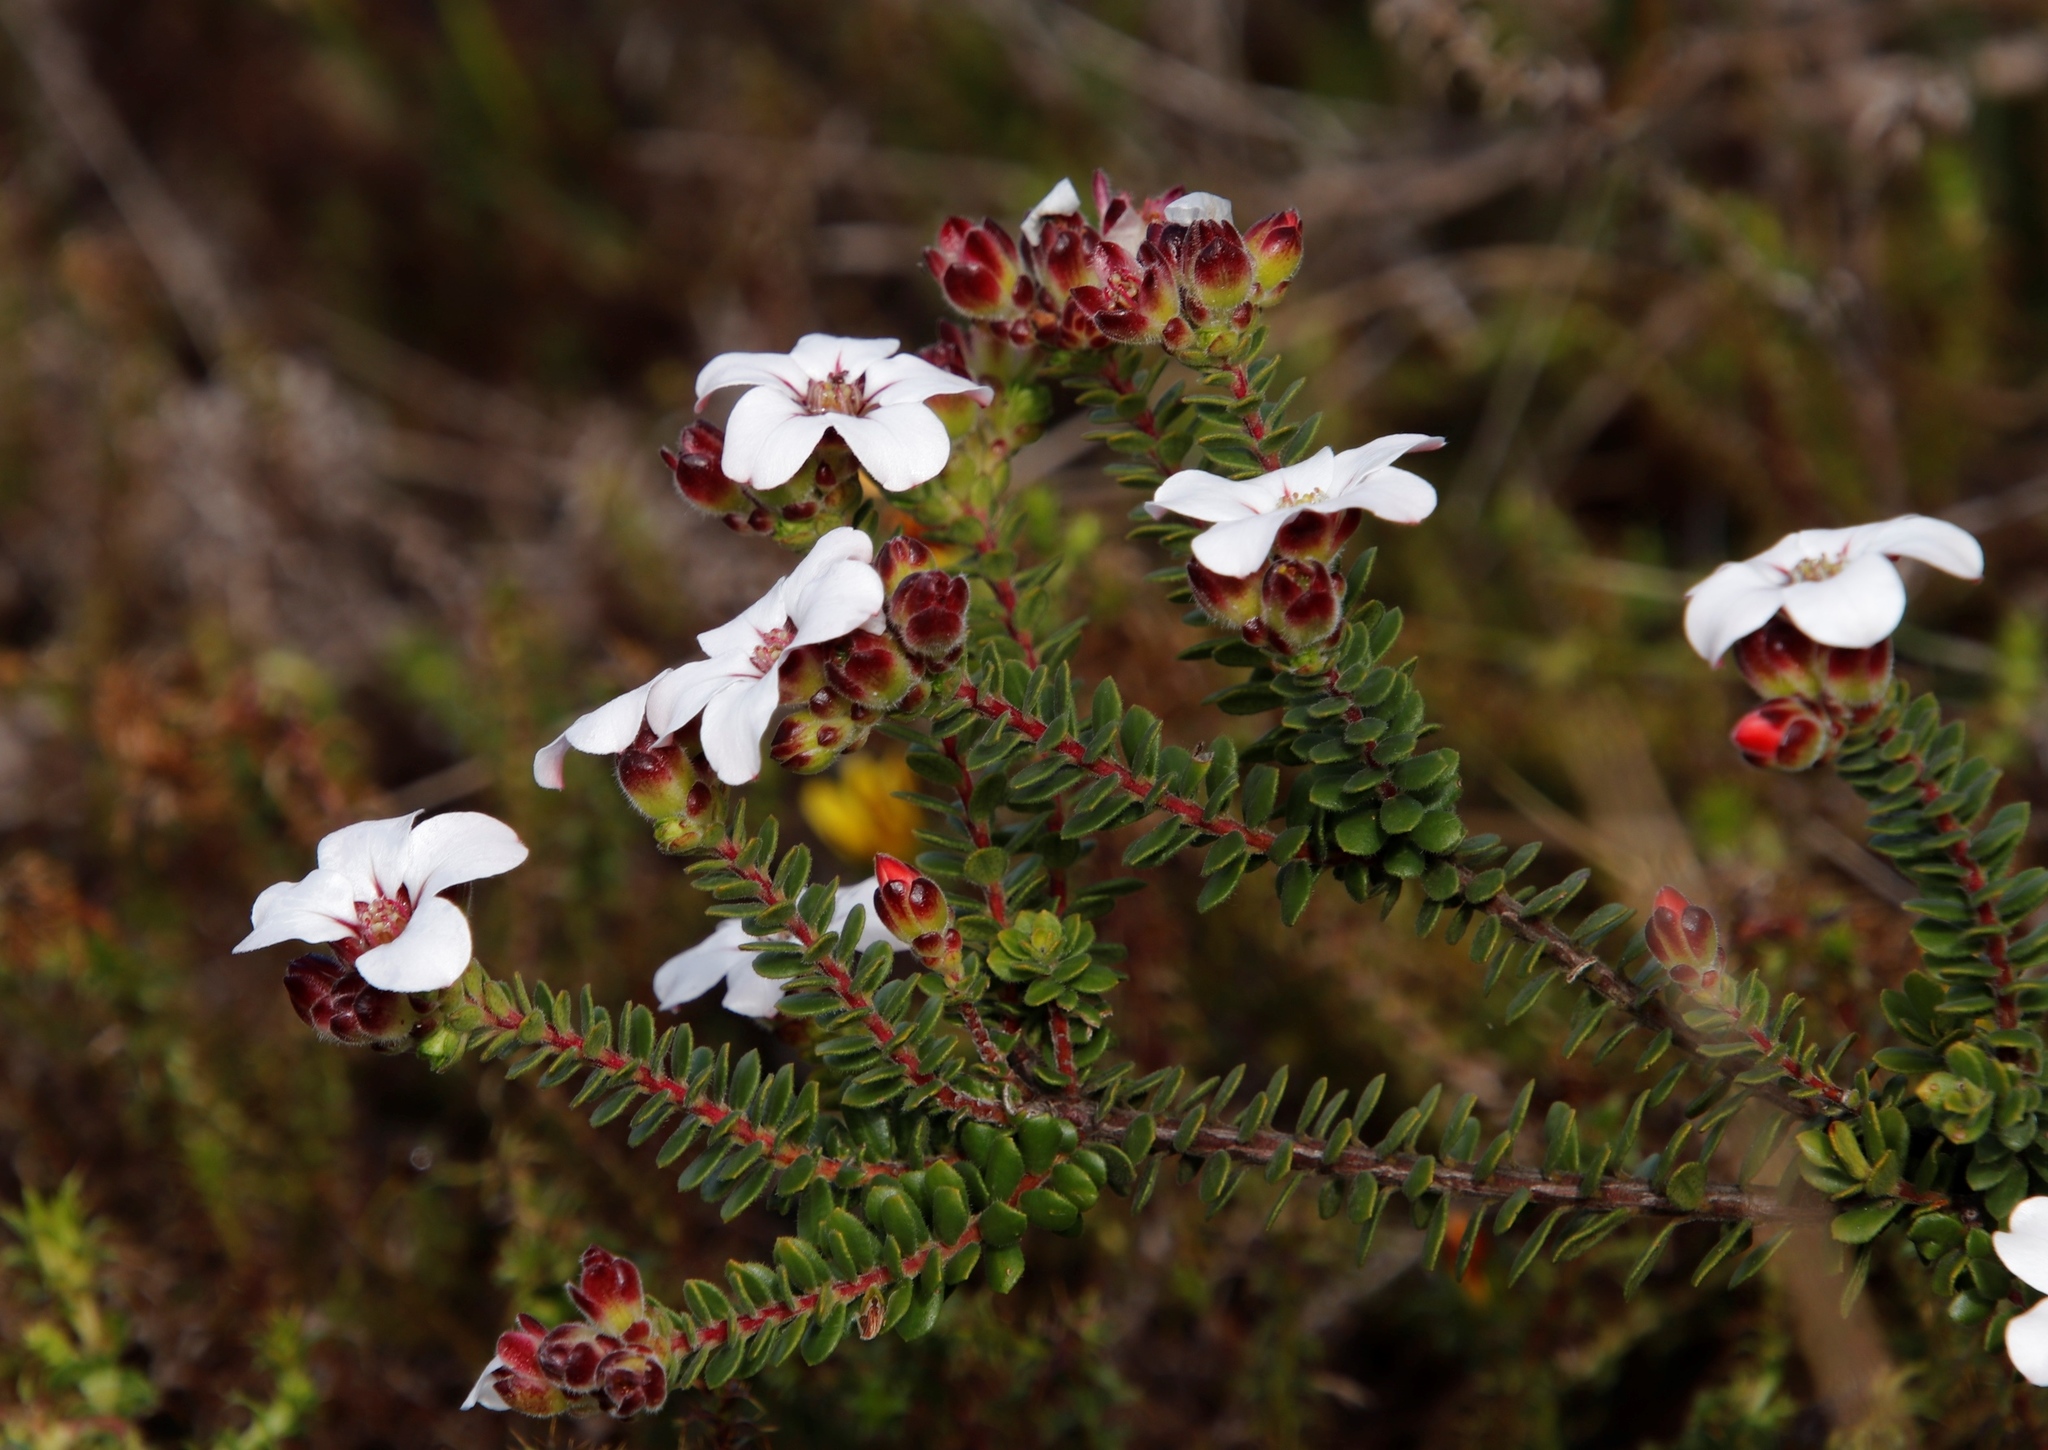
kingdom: Plantae
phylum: Tracheophyta
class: Magnoliopsida
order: Sapindales
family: Rutaceae
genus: Adenandra
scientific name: Adenandra villosa
